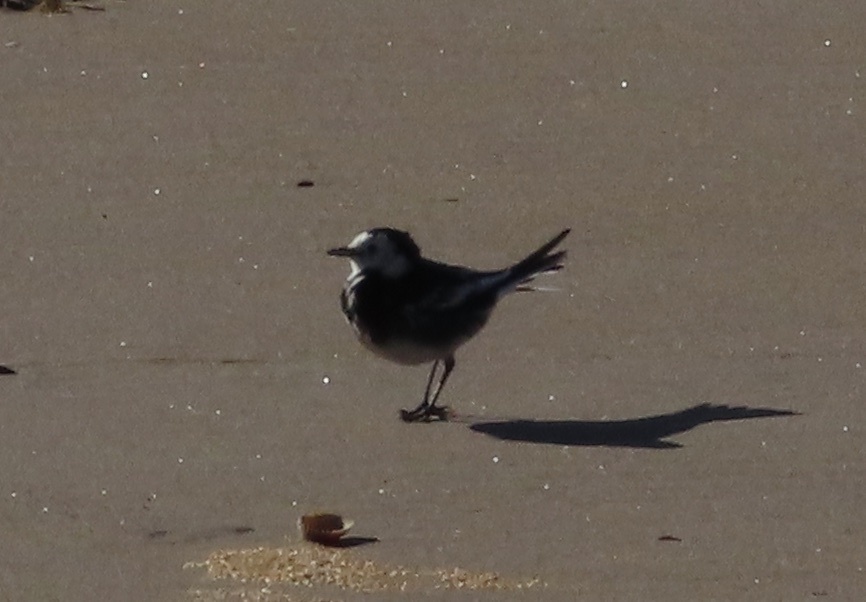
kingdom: Animalia
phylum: Chordata
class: Aves
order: Passeriformes
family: Motacillidae
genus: Motacilla
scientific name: Motacilla alba
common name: White wagtail
